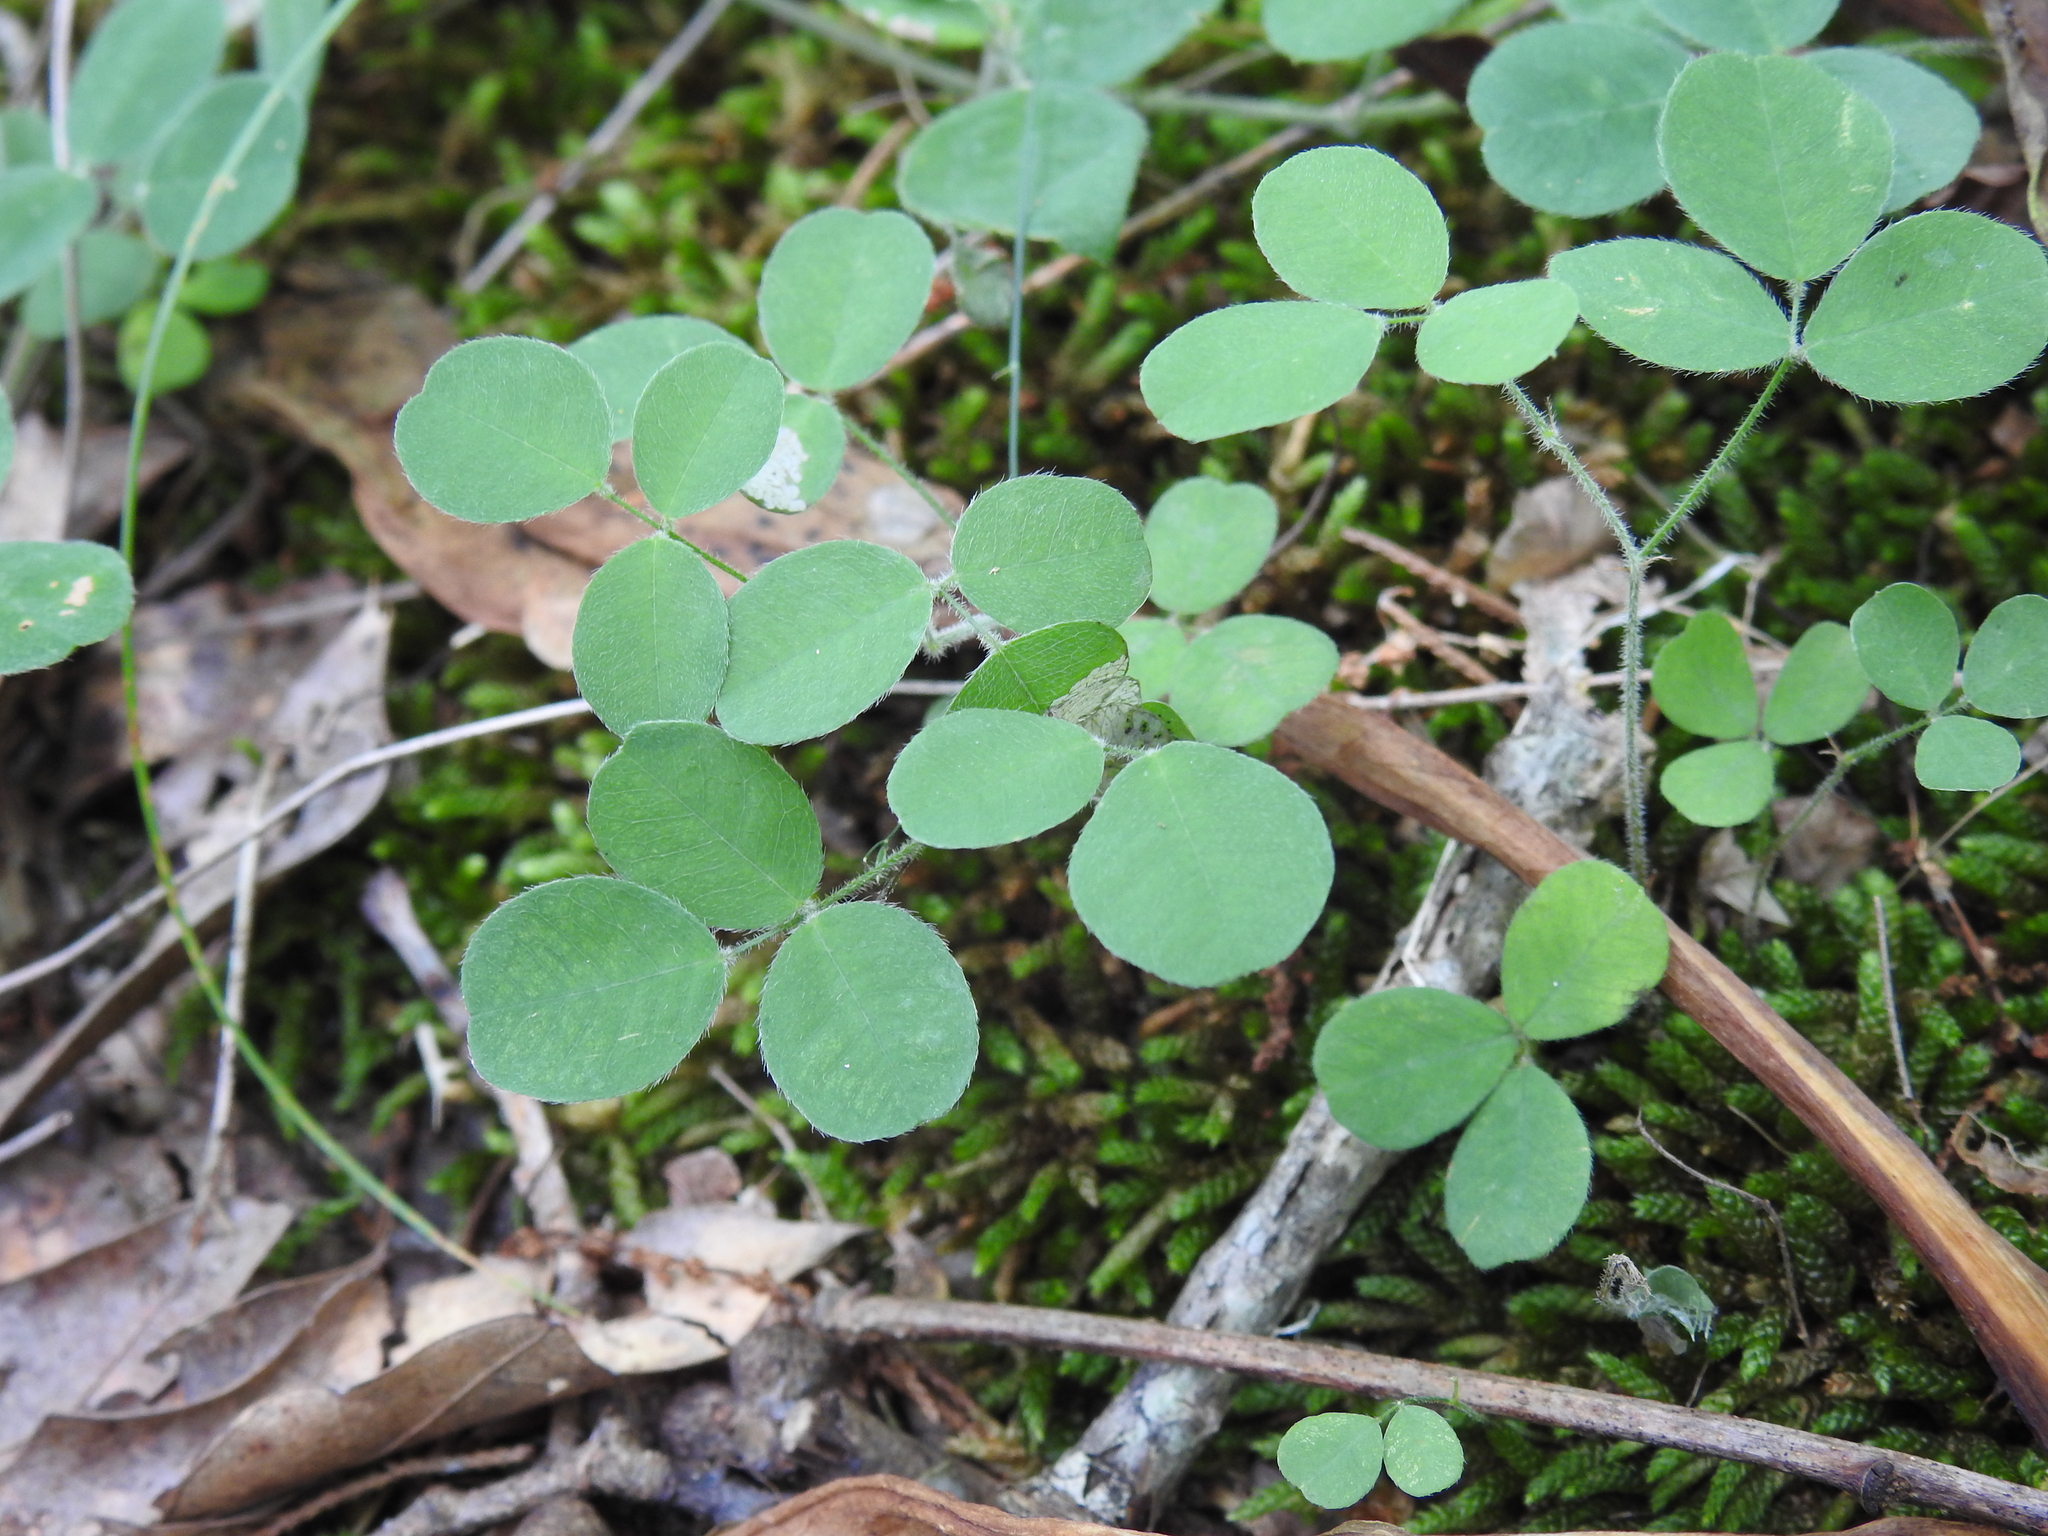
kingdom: Plantae
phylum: Tracheophyta
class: Magnoliopsida
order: Fabales
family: Fabaceae
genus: Lespedeza
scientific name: Lespedeza procumbens
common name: Downy trailing bush-clover
